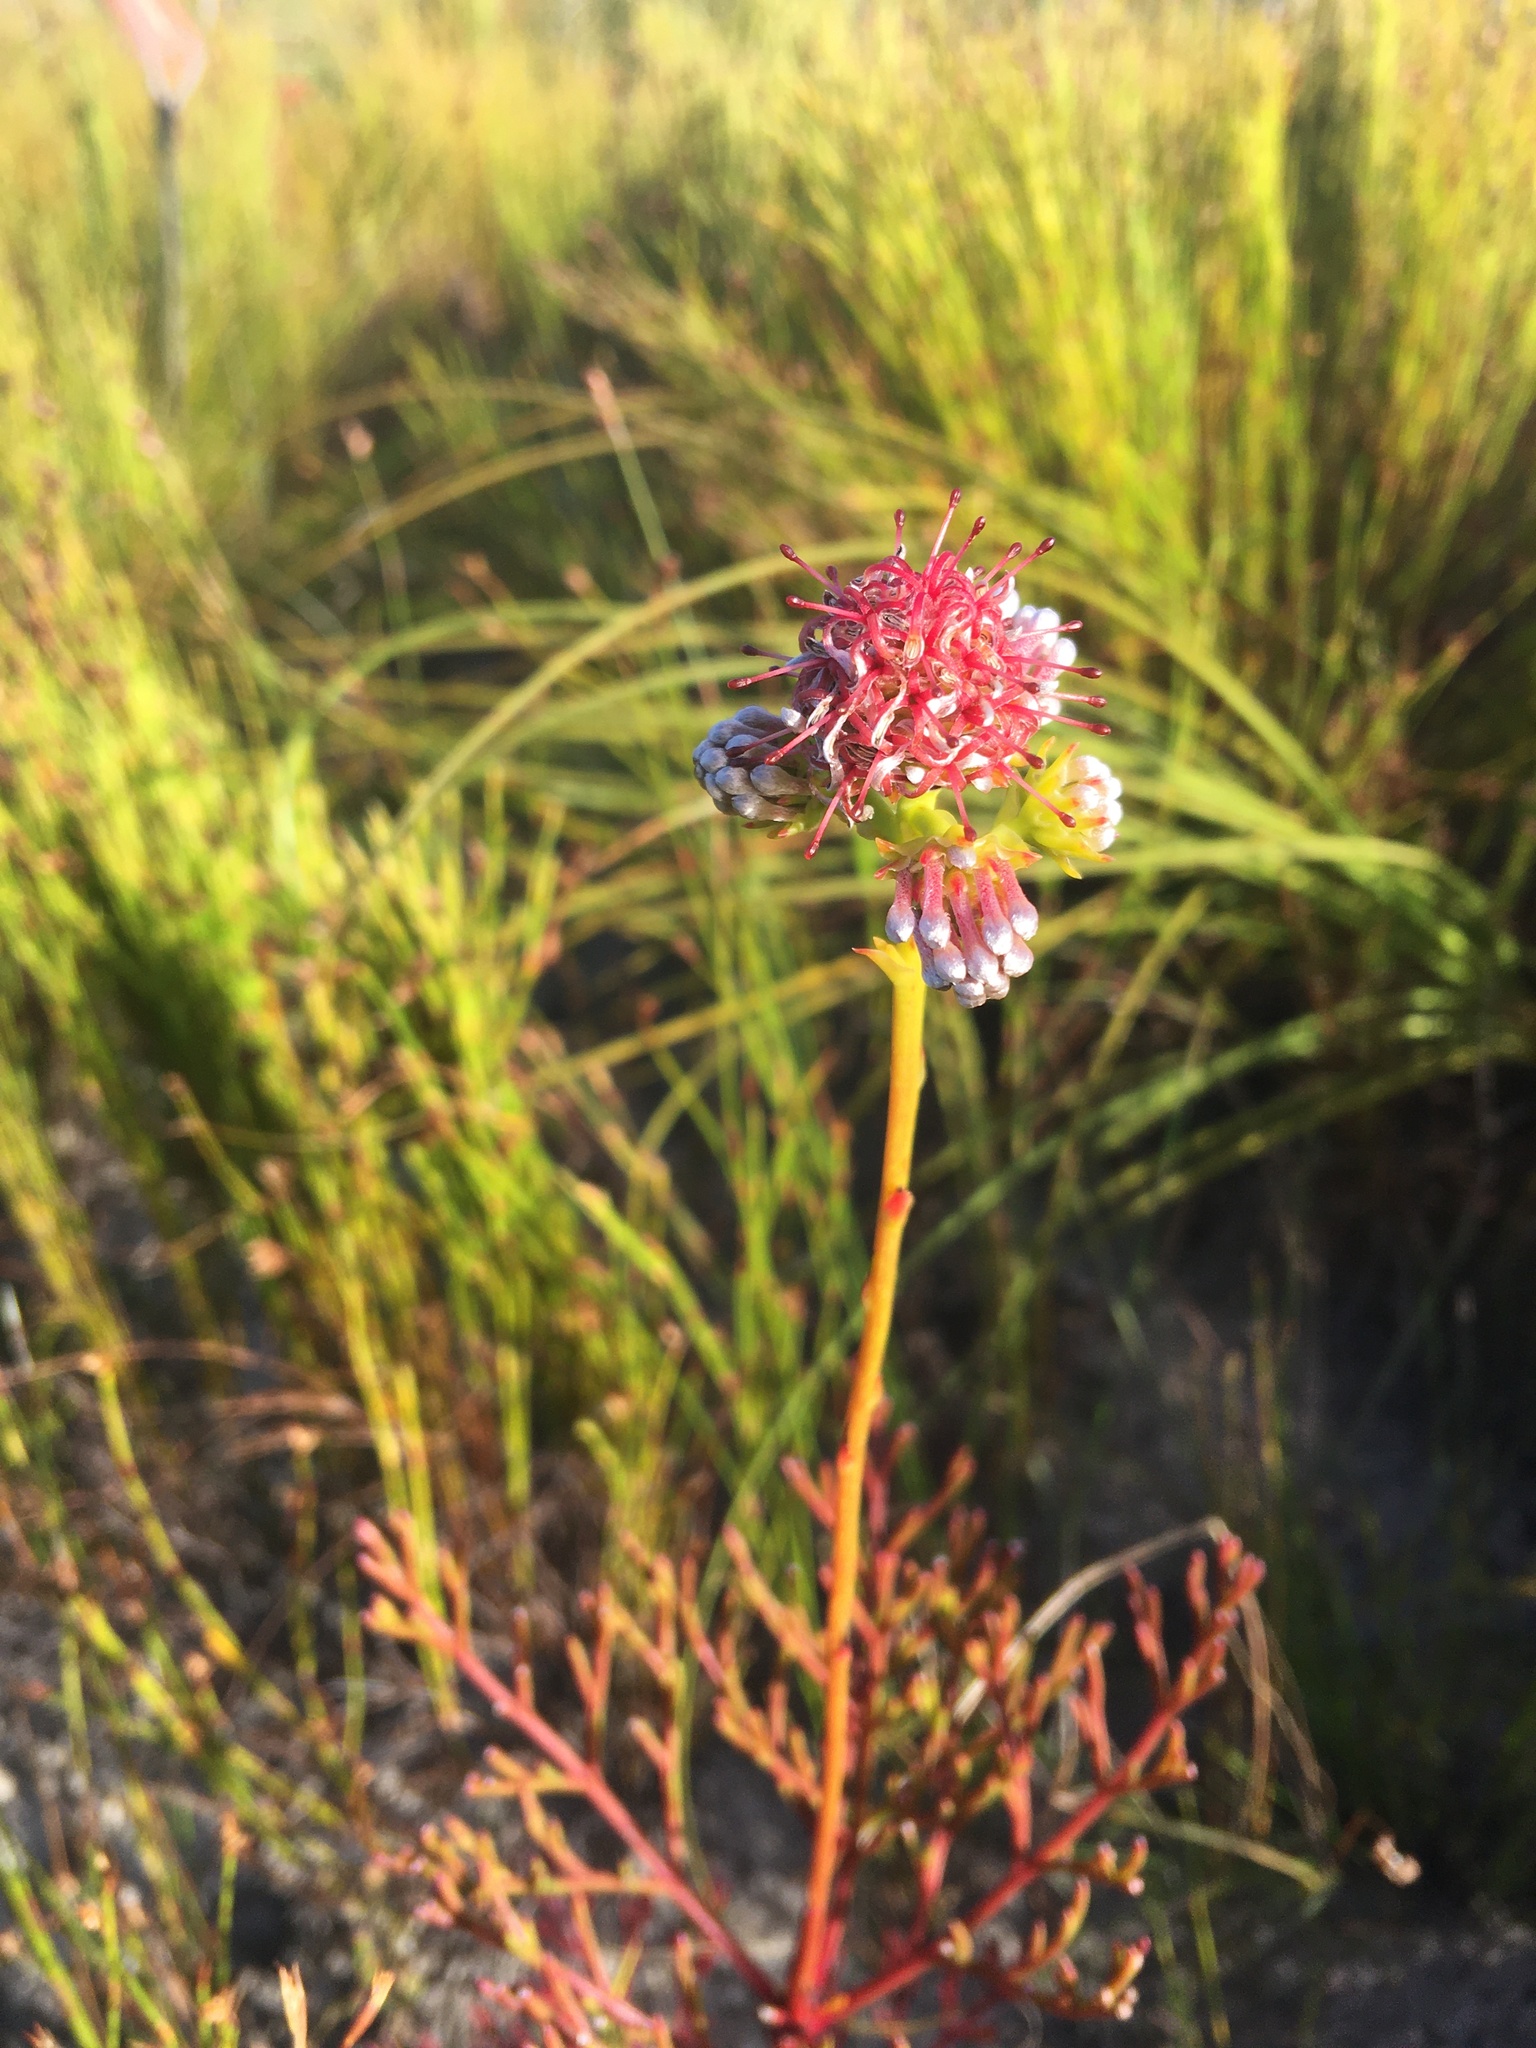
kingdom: Plantae
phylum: Tracheophyta
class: Magnoliopsida
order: Proteales
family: Proteaceae
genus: Serruria
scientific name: Serruria elongata
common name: Long-stalk spiderhead
